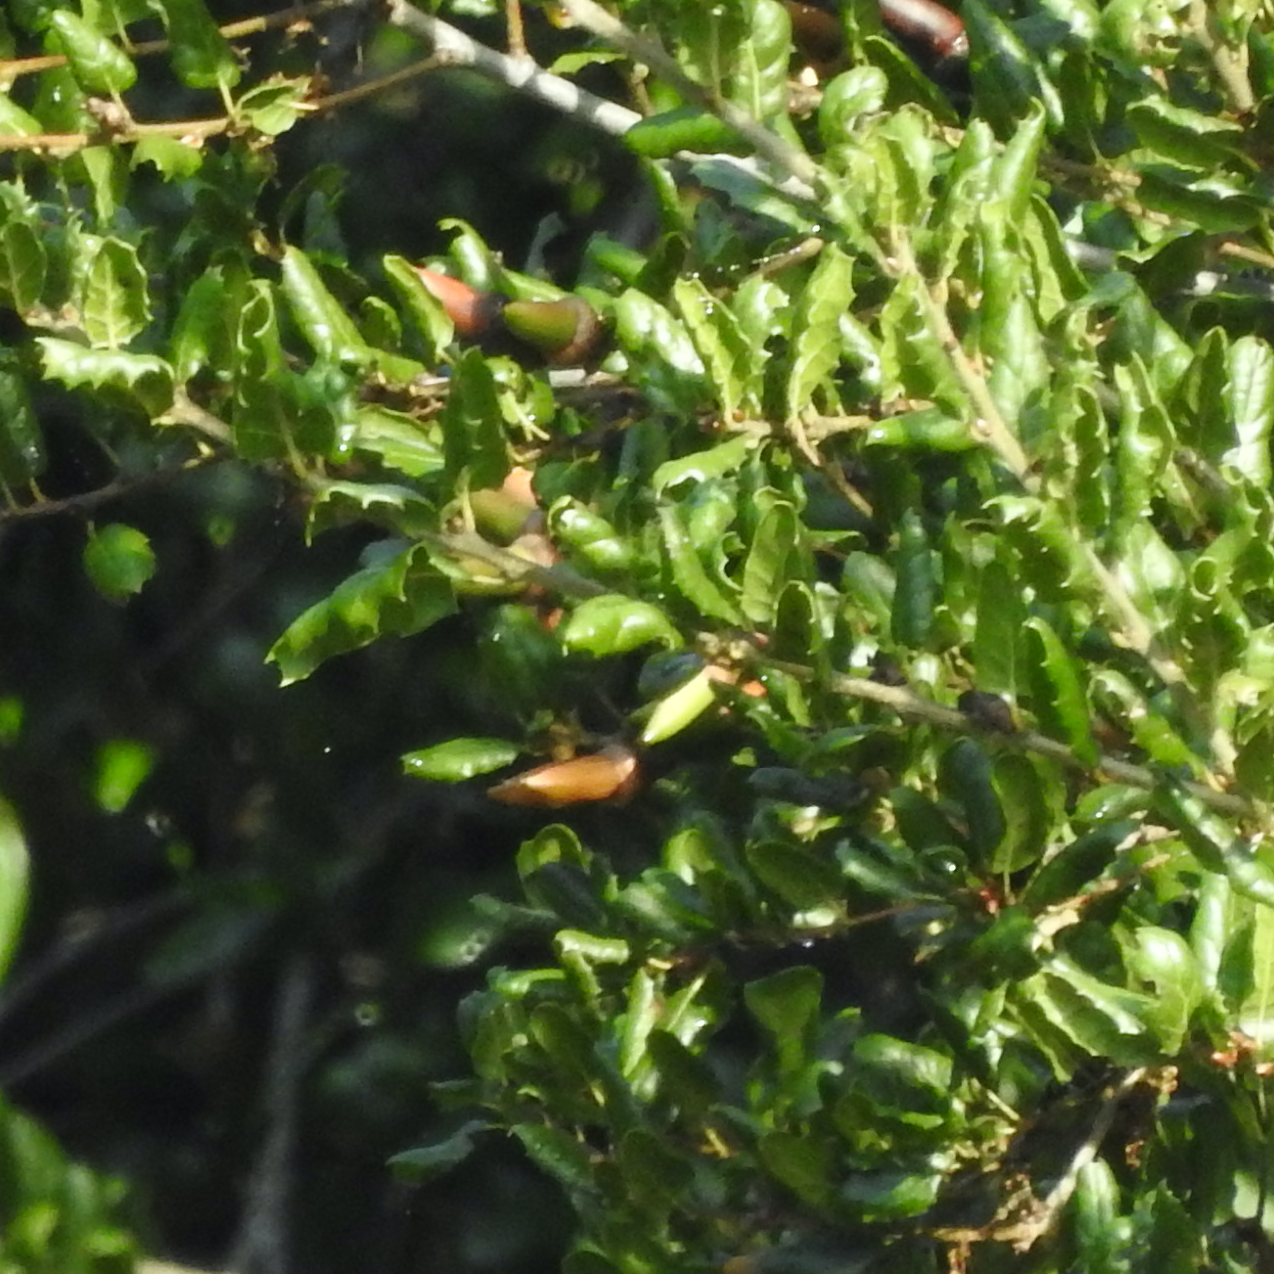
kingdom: Plantae
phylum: Tracheophyta
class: Magnoliopsida
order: Fagales
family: Fagaceae
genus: Quercus
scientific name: Quercus agrifolia
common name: California live oak
